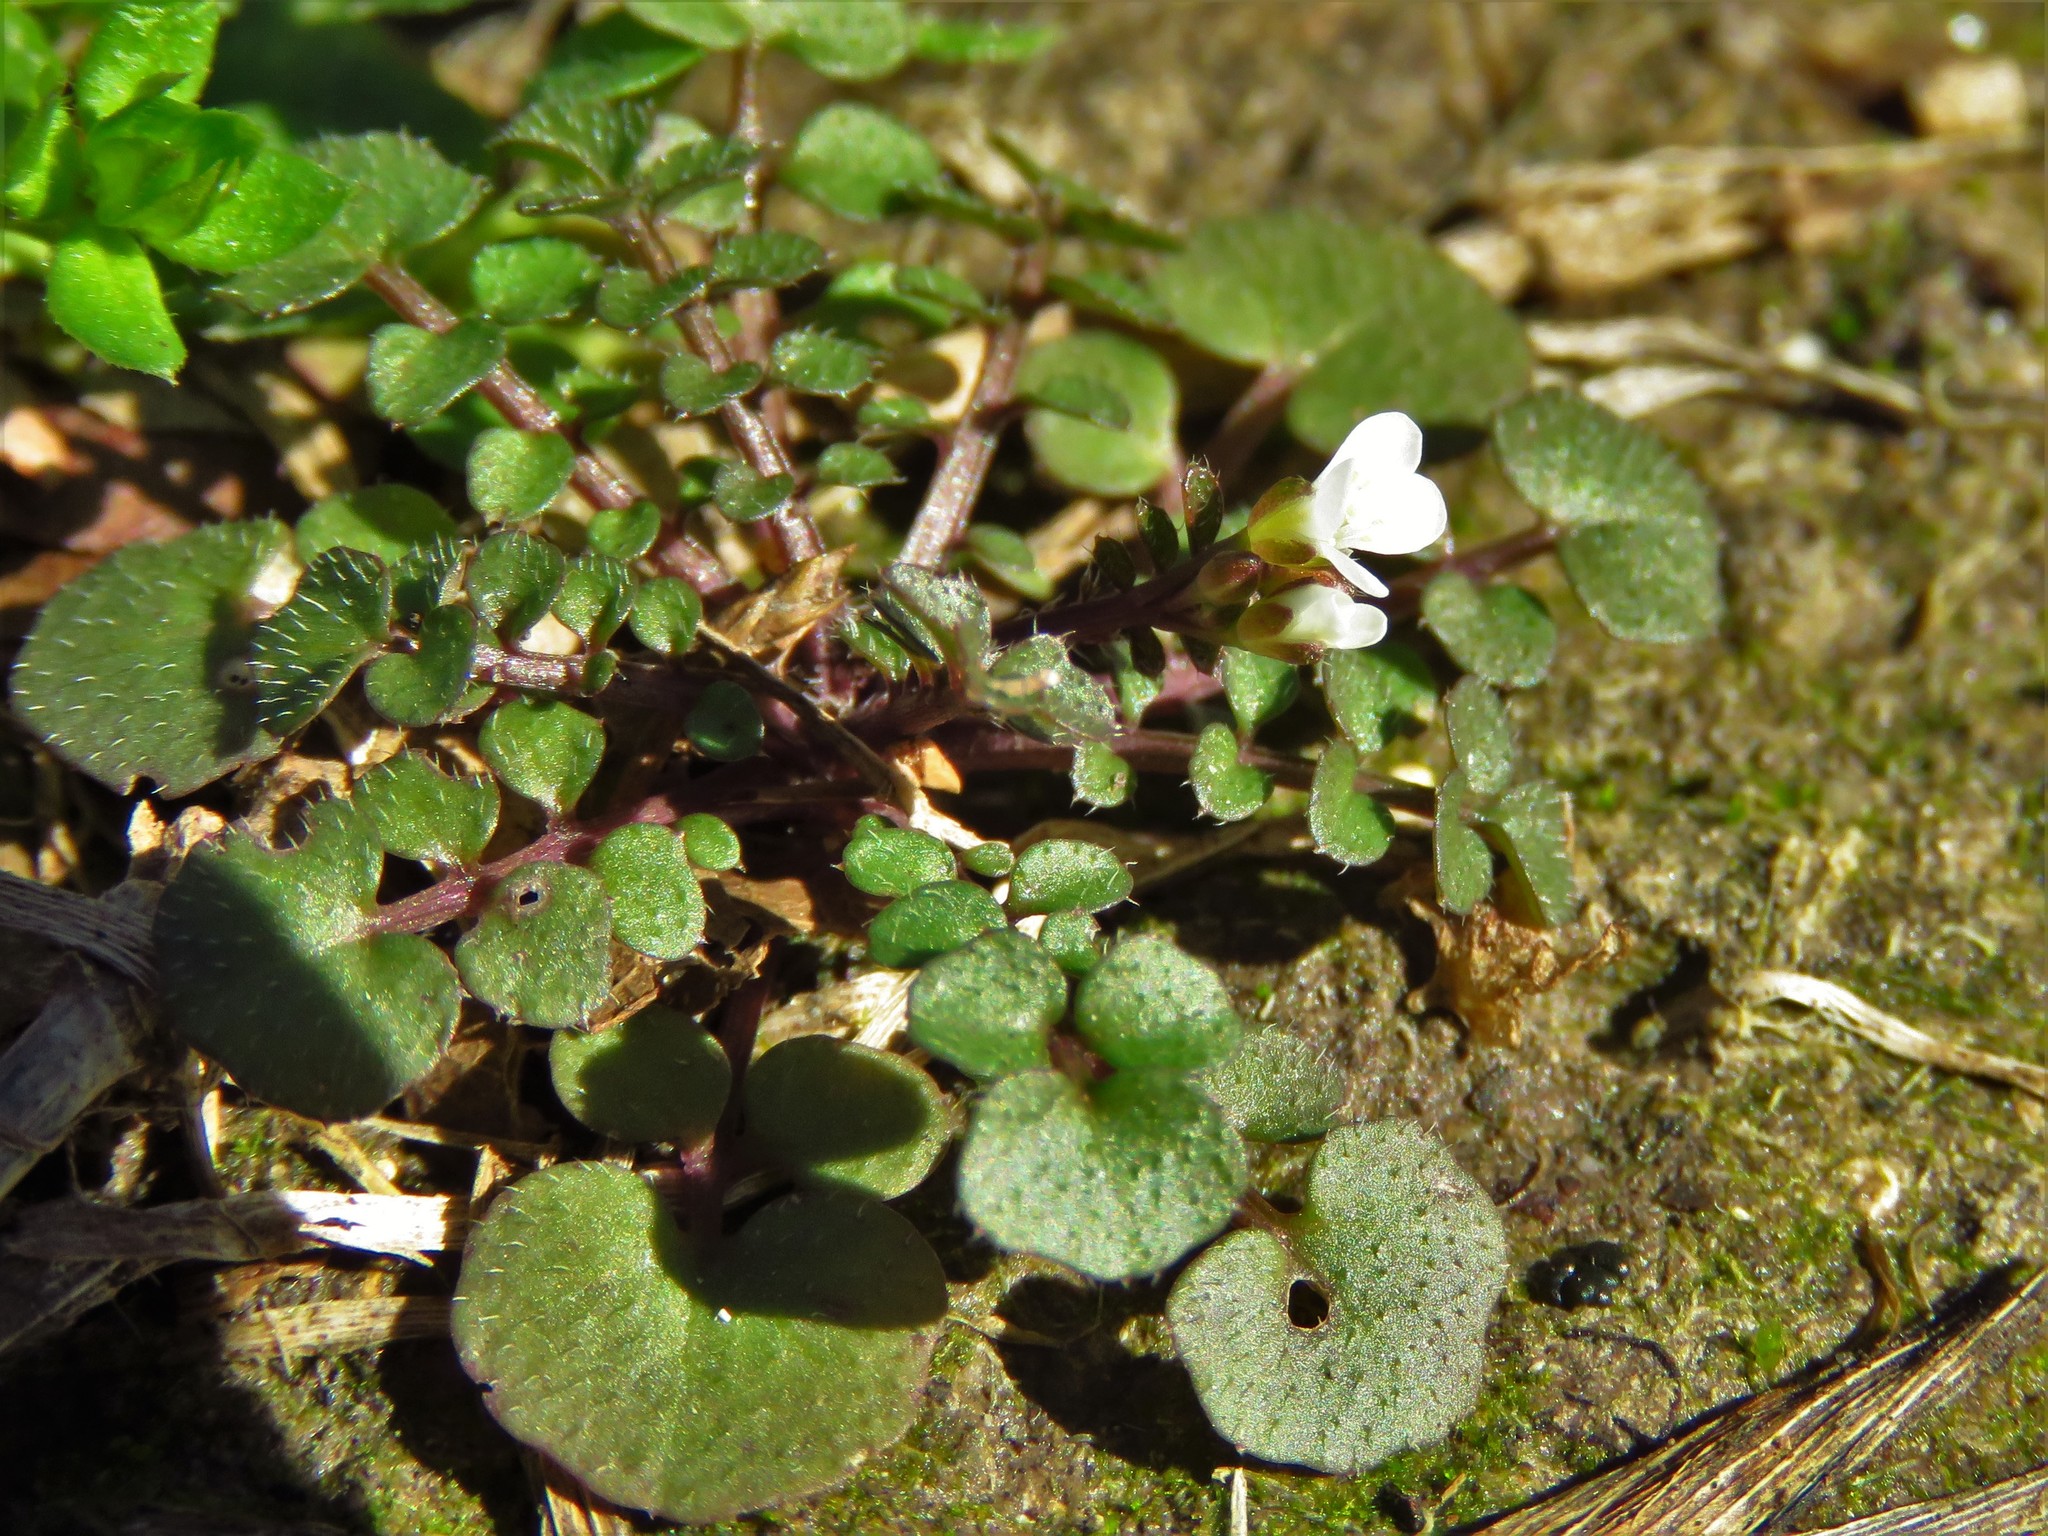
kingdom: Plantae
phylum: Tracheophyta
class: Magnoliopsida
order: Brassicales
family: Brassicaceae
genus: Cardamine
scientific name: Cardamine hirsuta
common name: Hairy bittercress
